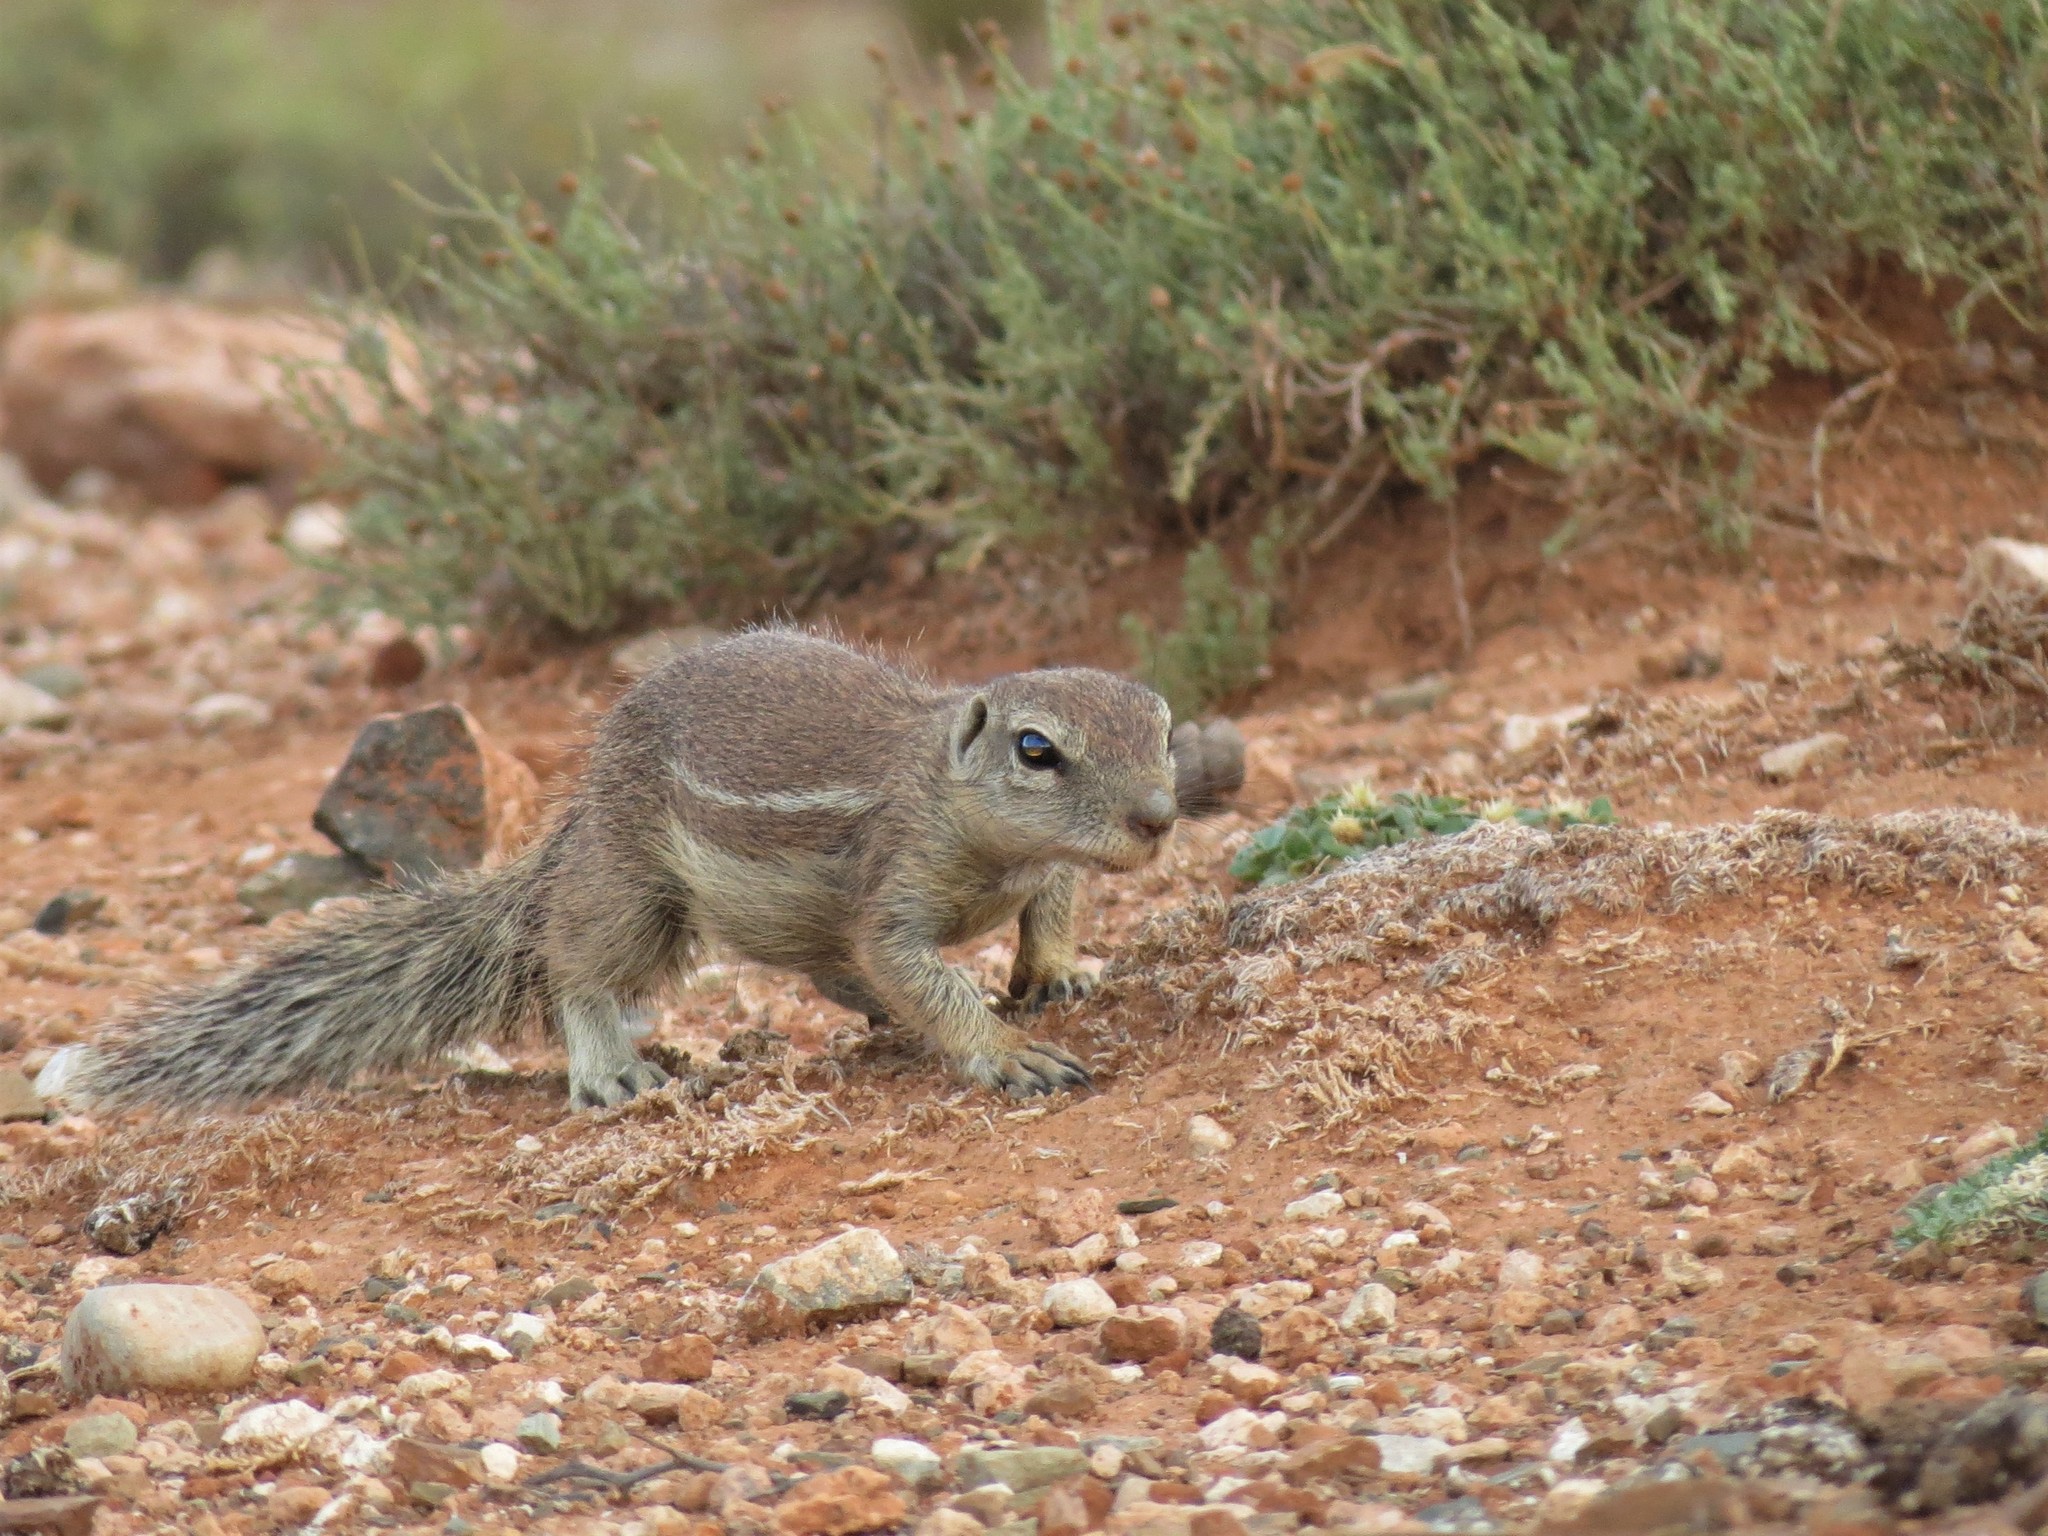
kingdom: Animalia
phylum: Chordata
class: Mammalia
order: Rodentia
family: Sciuridae
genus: Xerus
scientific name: Xerus inauris
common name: South african ground squirrel
